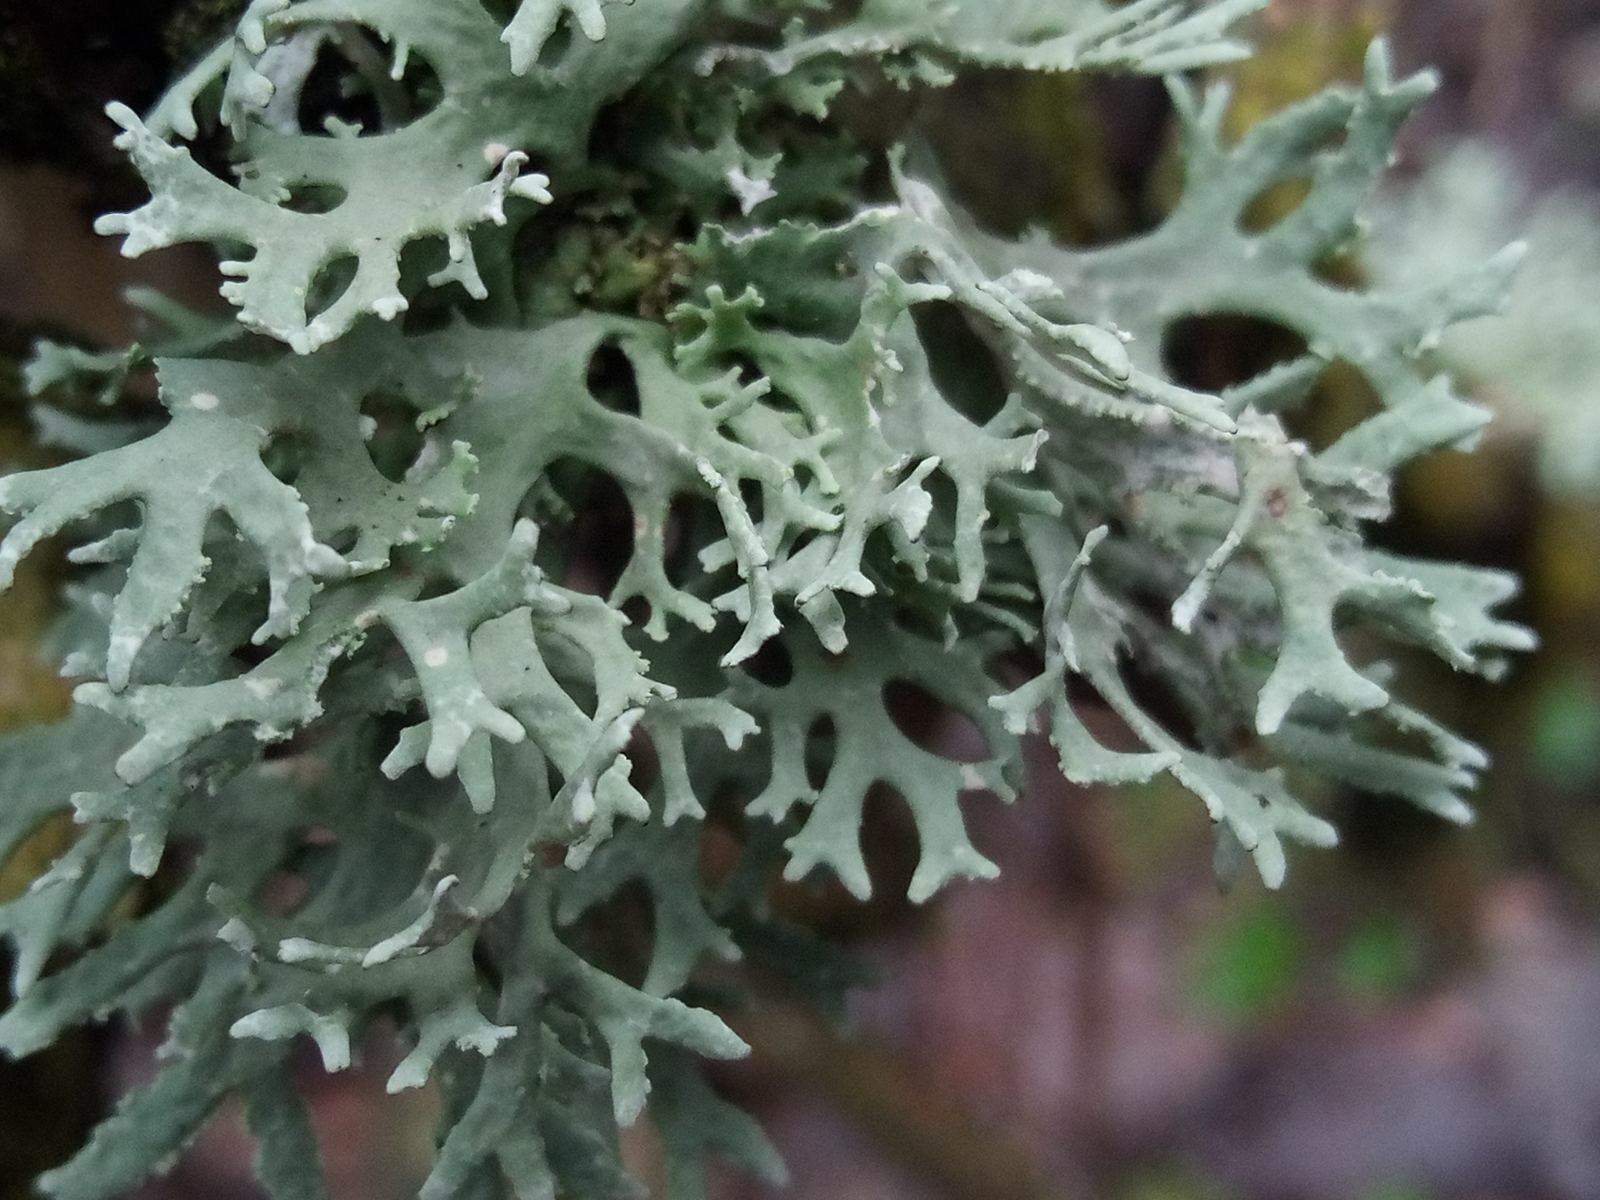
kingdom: Fungi
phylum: Ascomycota
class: Lecanoromycetes
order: Lecanorales
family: Parmeliaceae
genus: Evernia
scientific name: Evernia prunastri
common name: Oak moss
